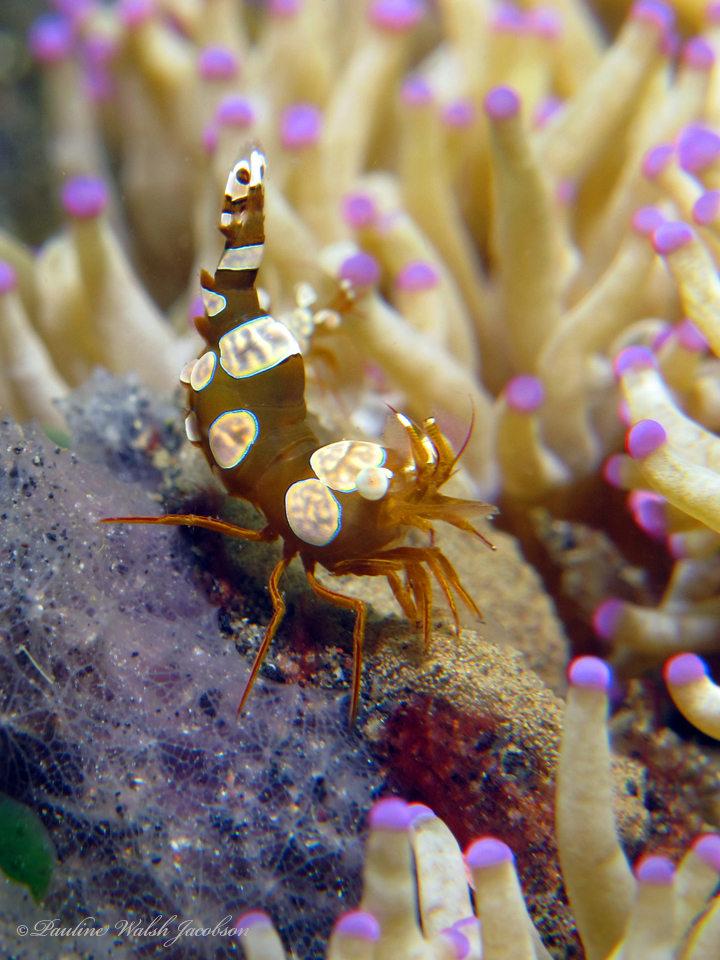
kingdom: Animalia
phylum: Arthropoda
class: Malacostraca
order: Decapoda
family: Thoridae
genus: Thor
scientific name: Thor amboinensis
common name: Squat anemone shrimp
